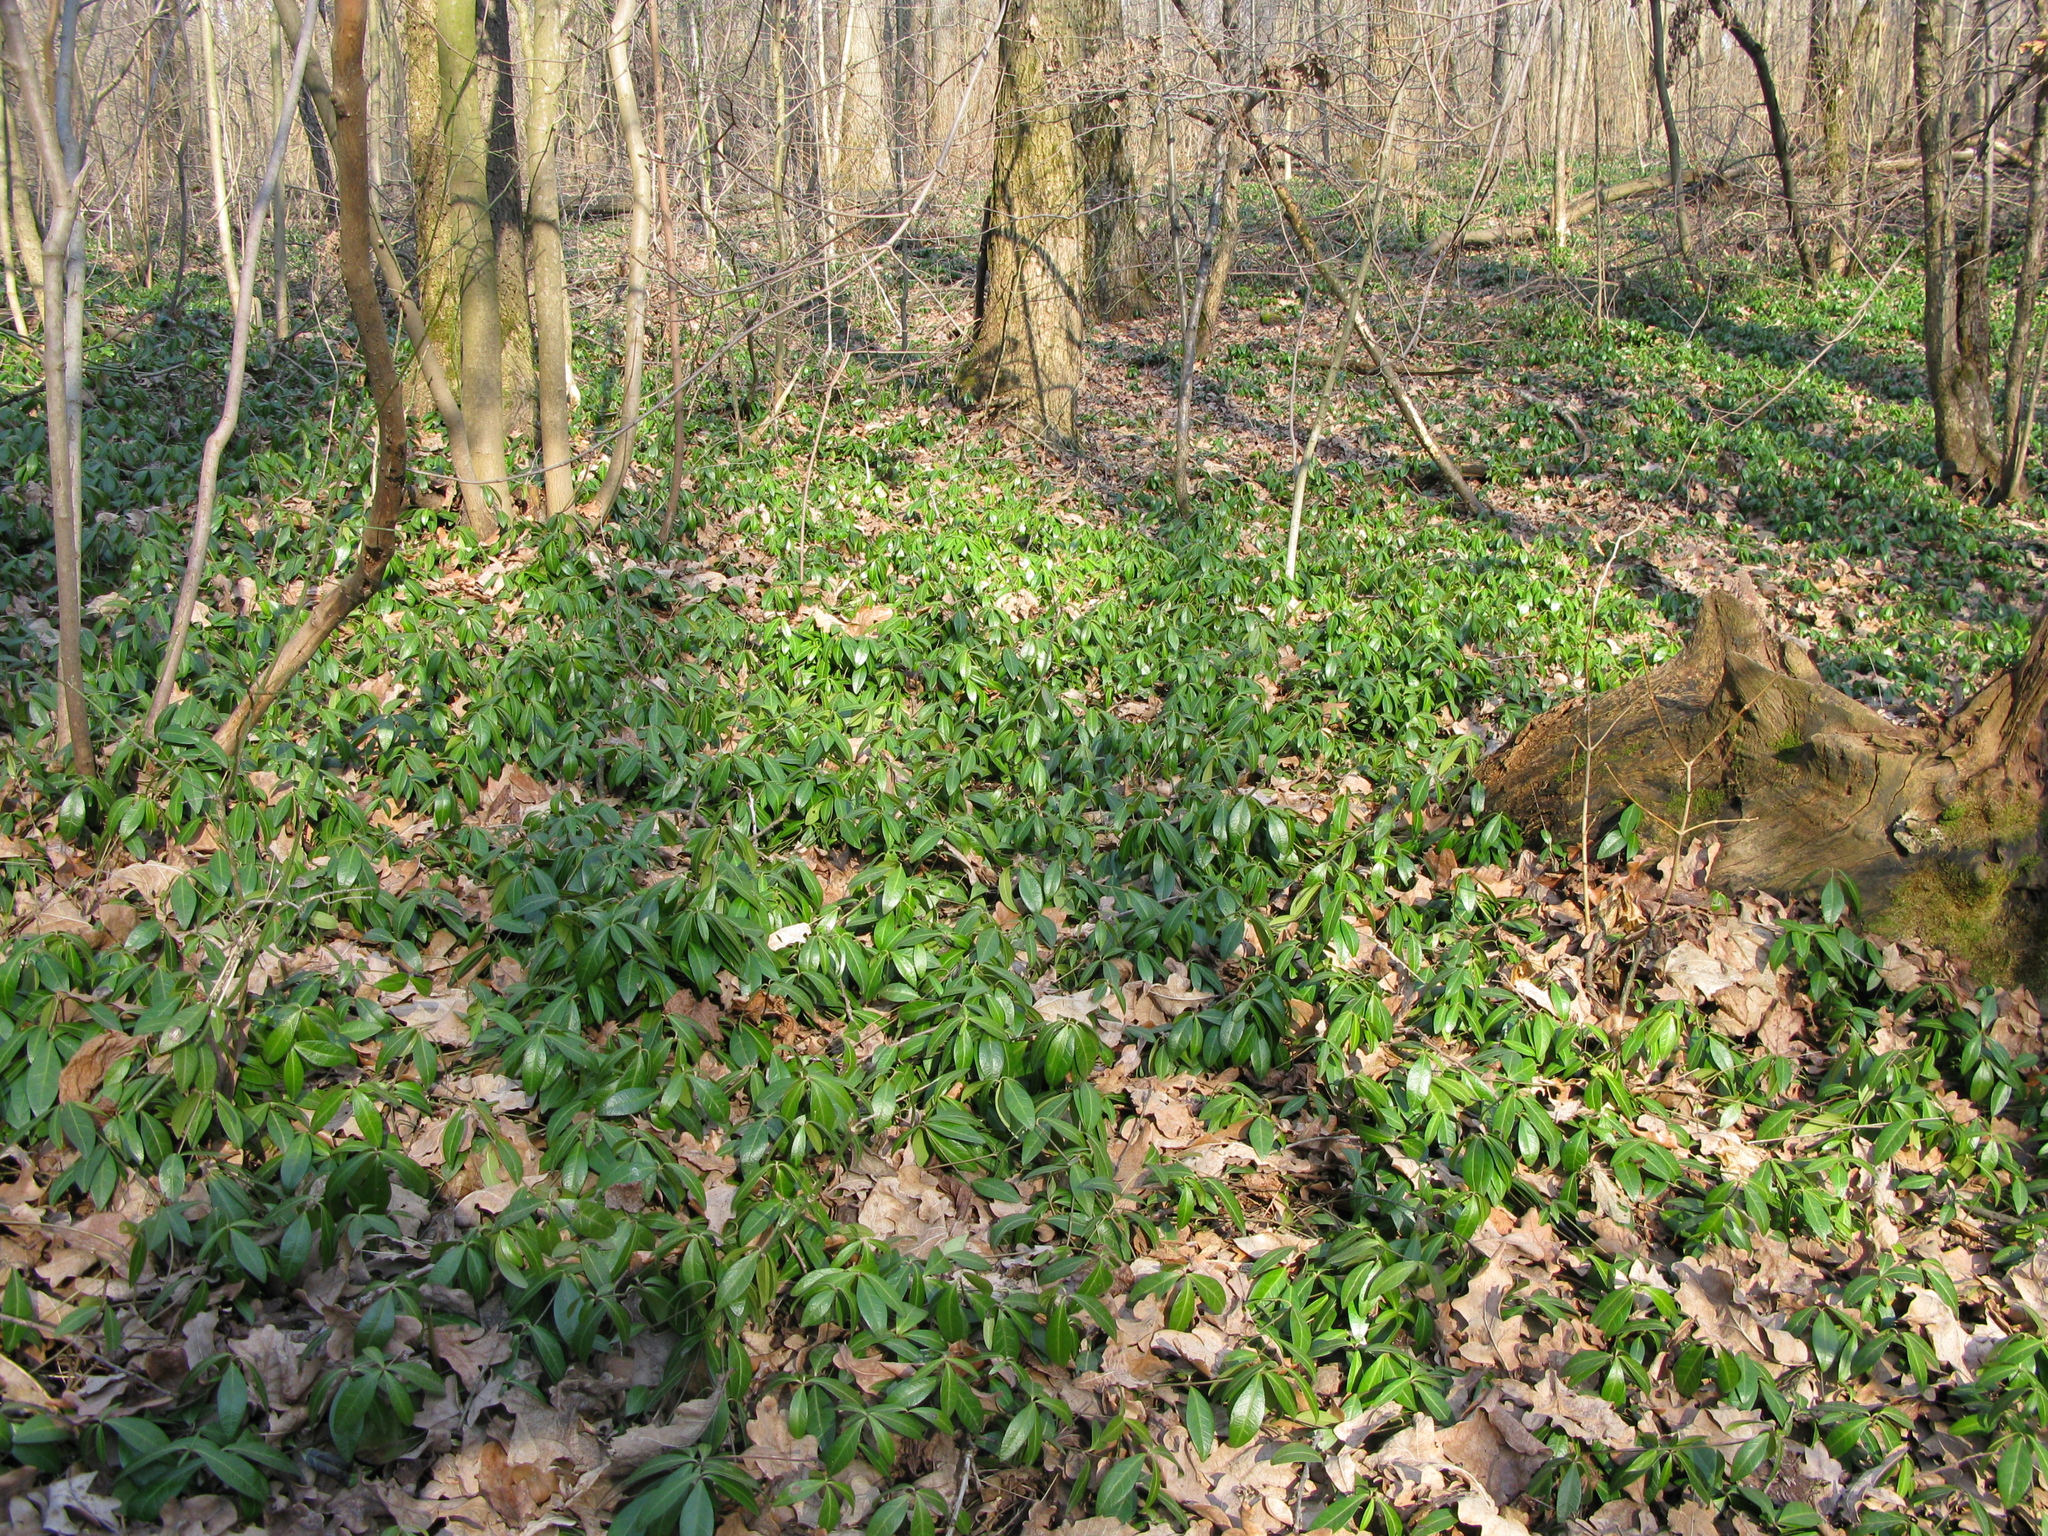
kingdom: Plantae
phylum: Tracheophyta
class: Magnoliopsida
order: Gentianales
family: Apocynaceae
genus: Vinca
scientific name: Vinca minor
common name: Lesser periwinkle
